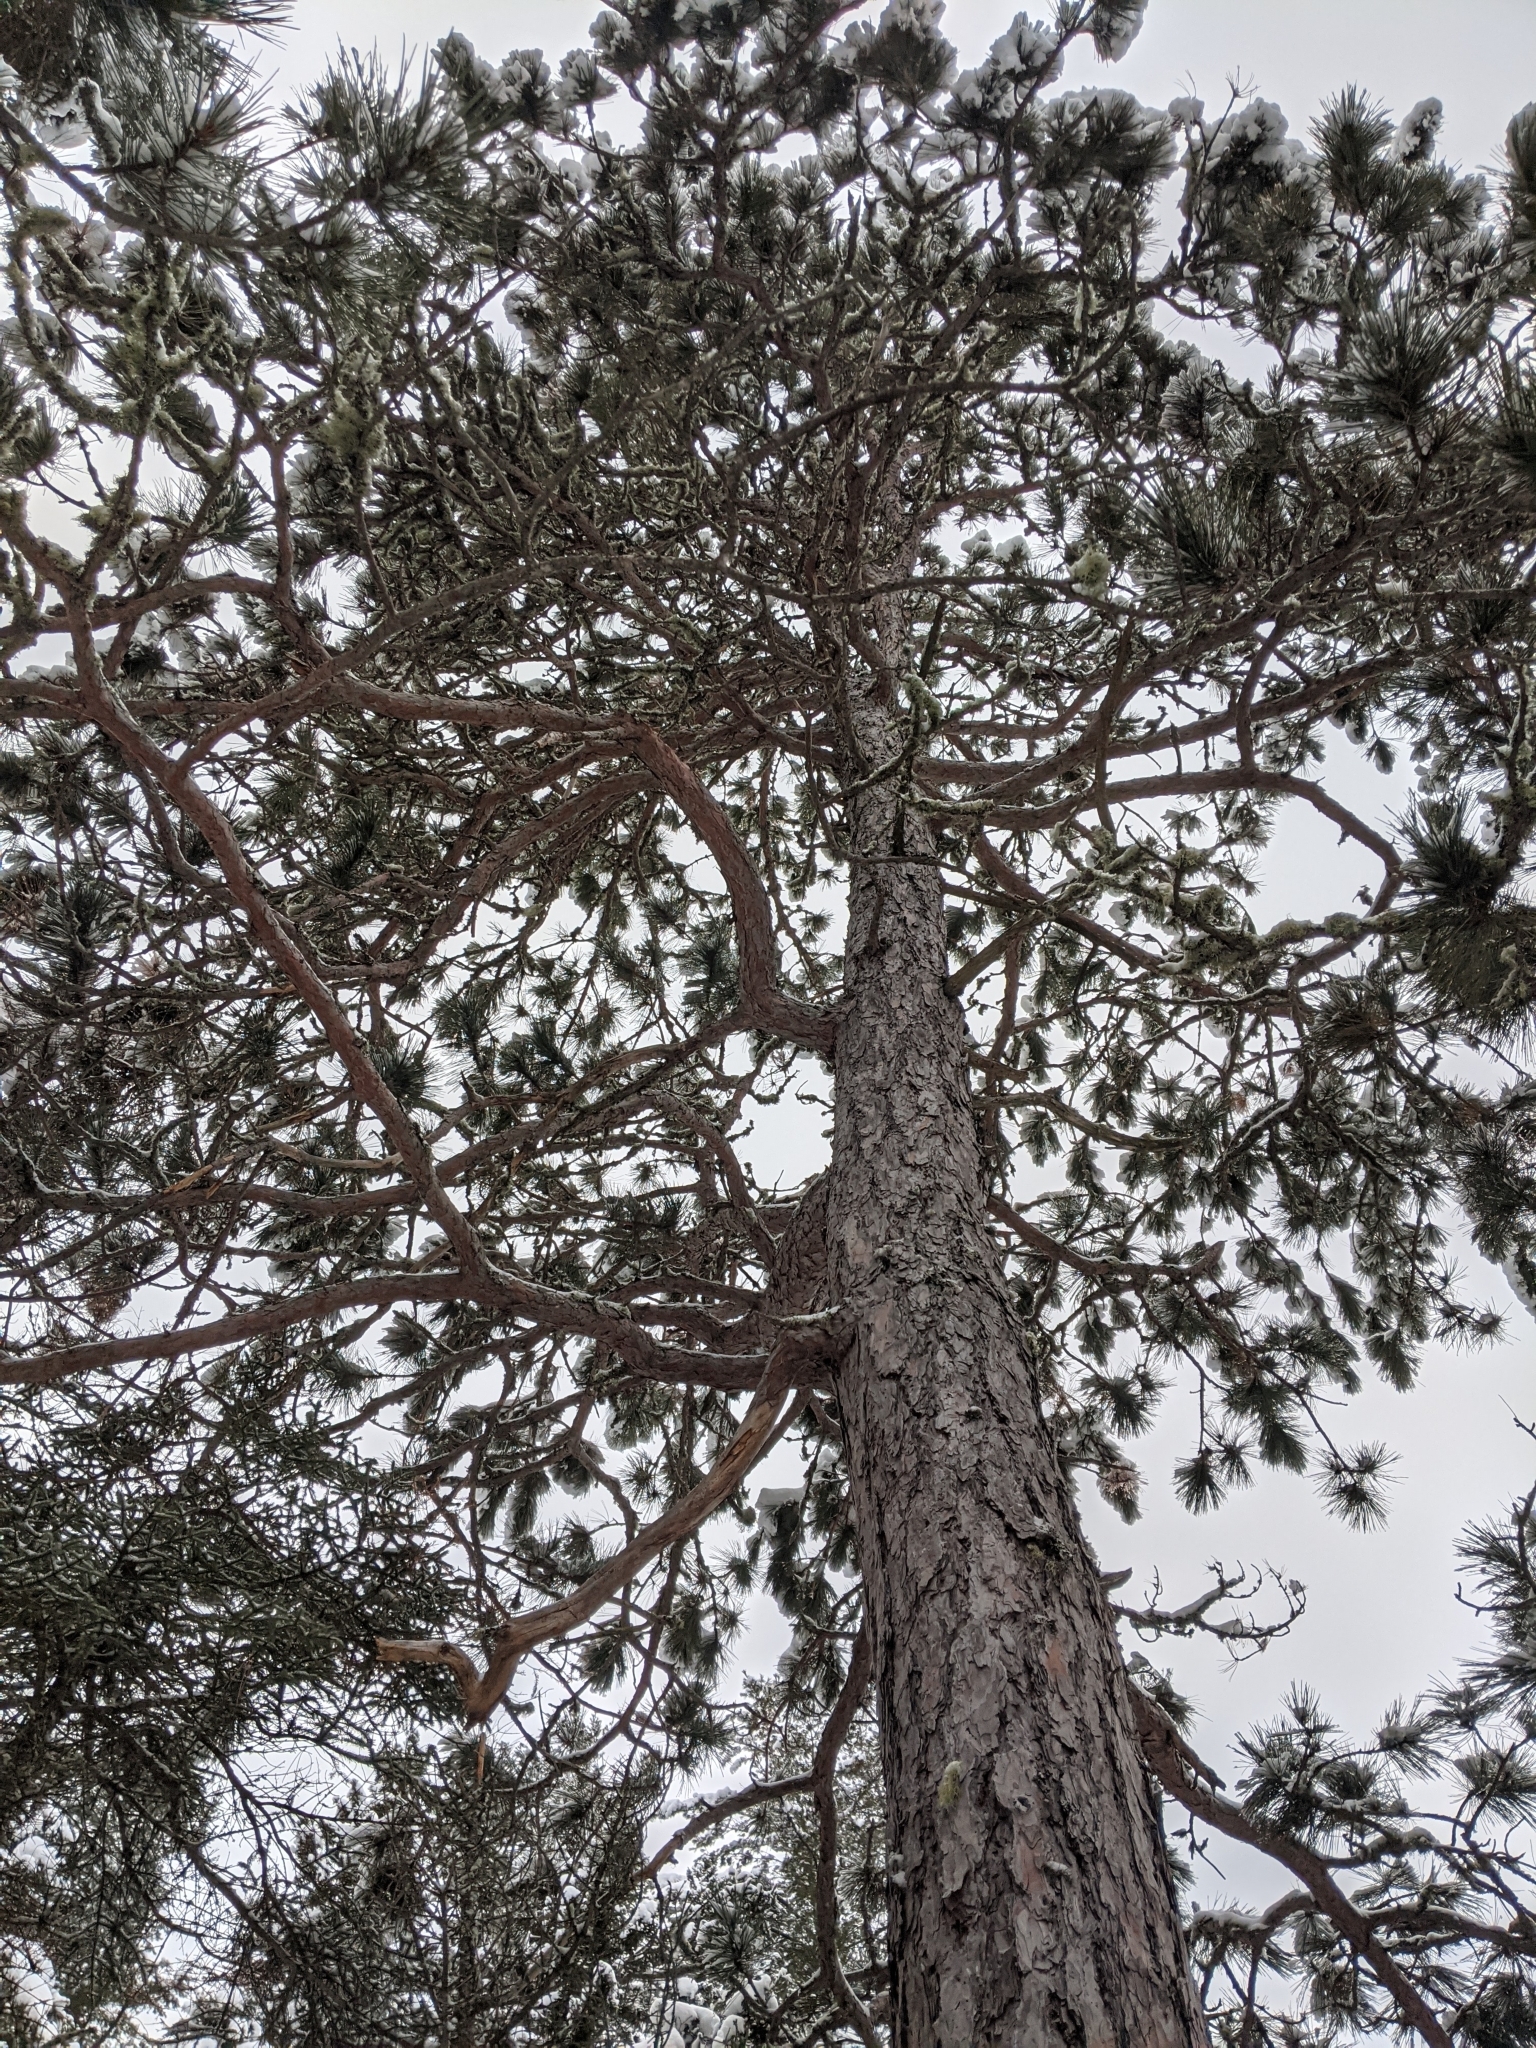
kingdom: Plantae
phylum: Tracheophyta
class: Pinopsida
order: Pinales
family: Pinaceae
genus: Pinus
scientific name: Pinus resinosa
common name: Norway pine
